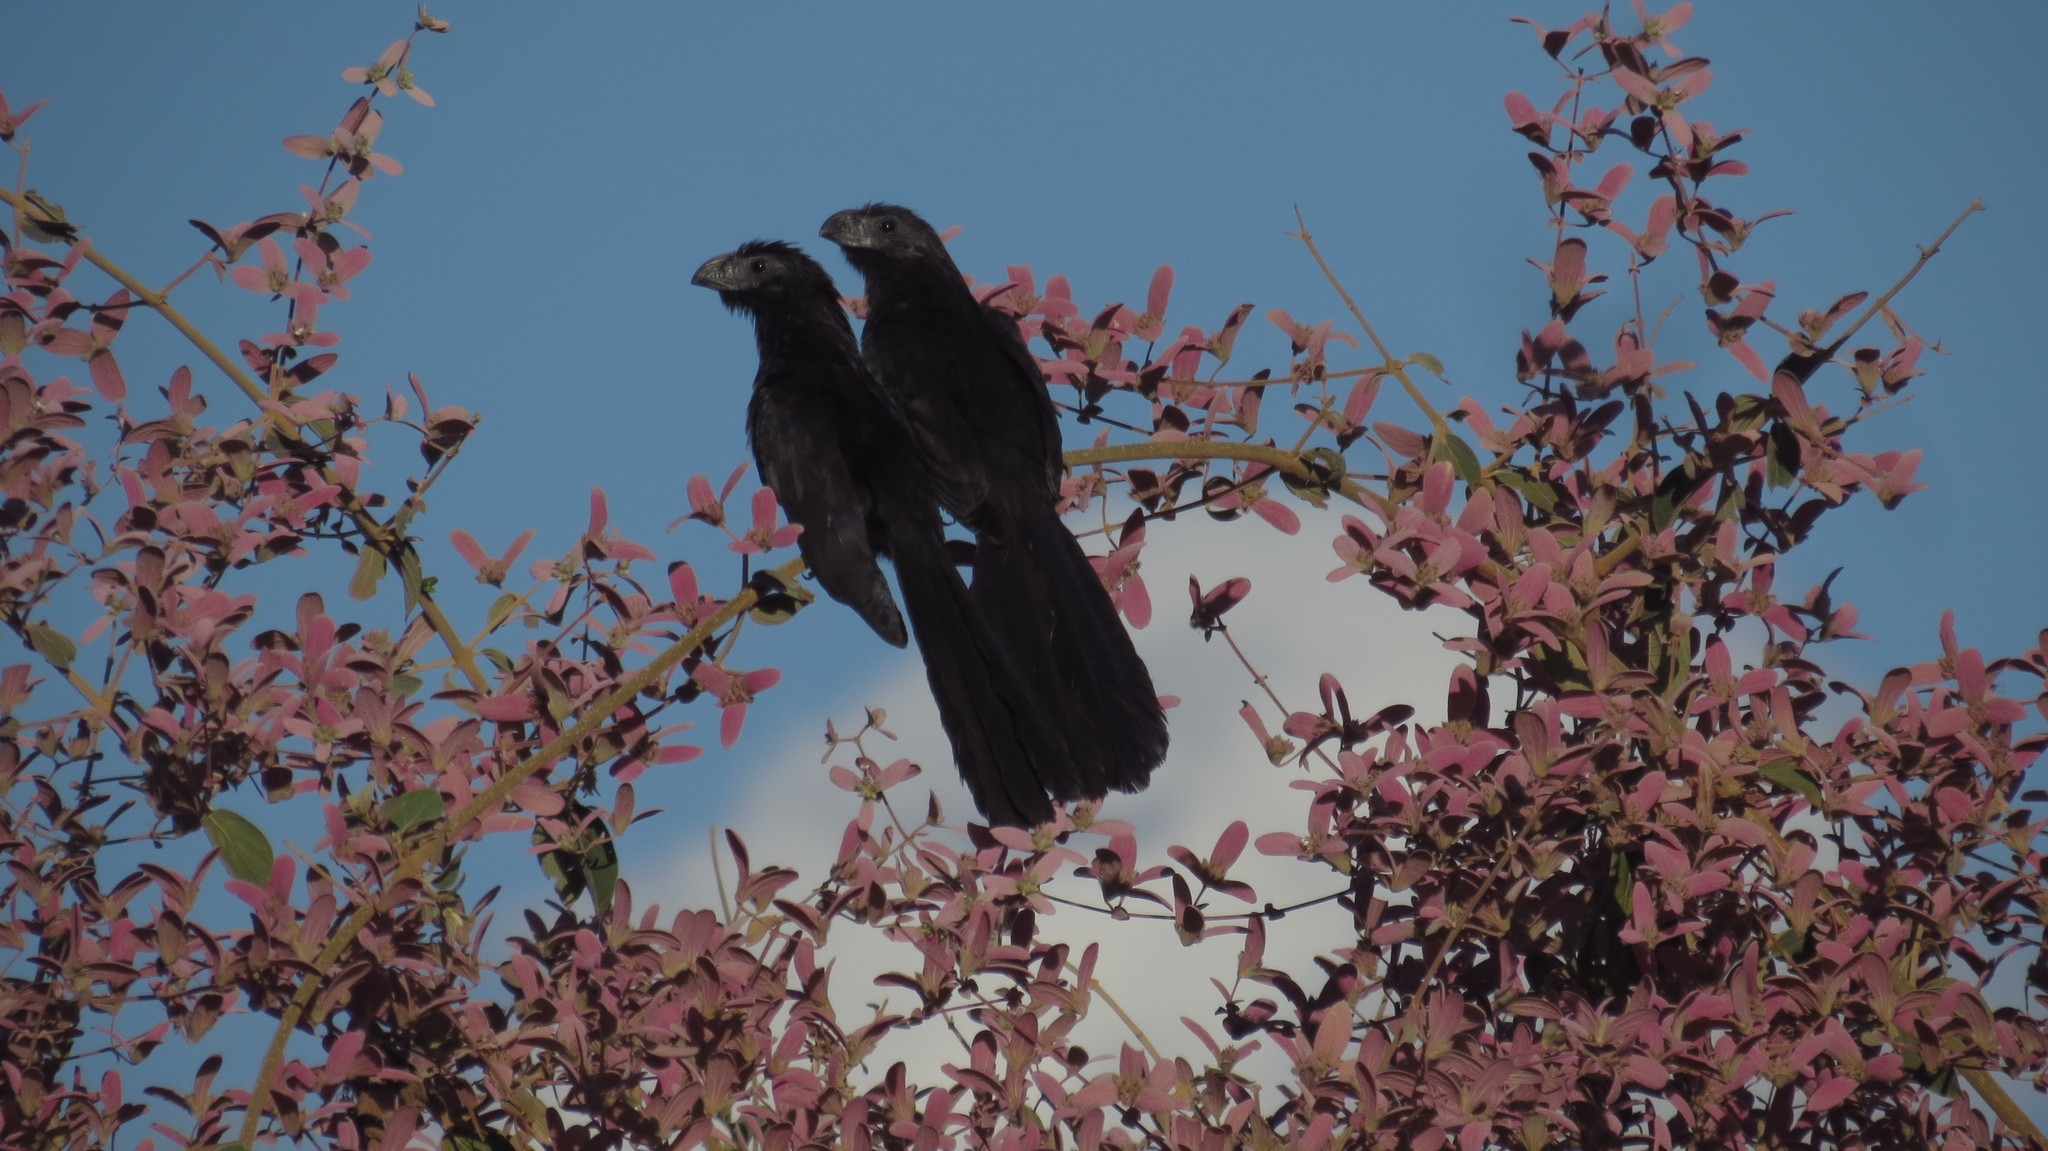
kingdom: Animalia
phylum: Chordata
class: Aves
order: Cuculiformes
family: Cuculidae
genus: Crotophaga
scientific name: Crotophaga sulcirostris
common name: Groove-billed ani
